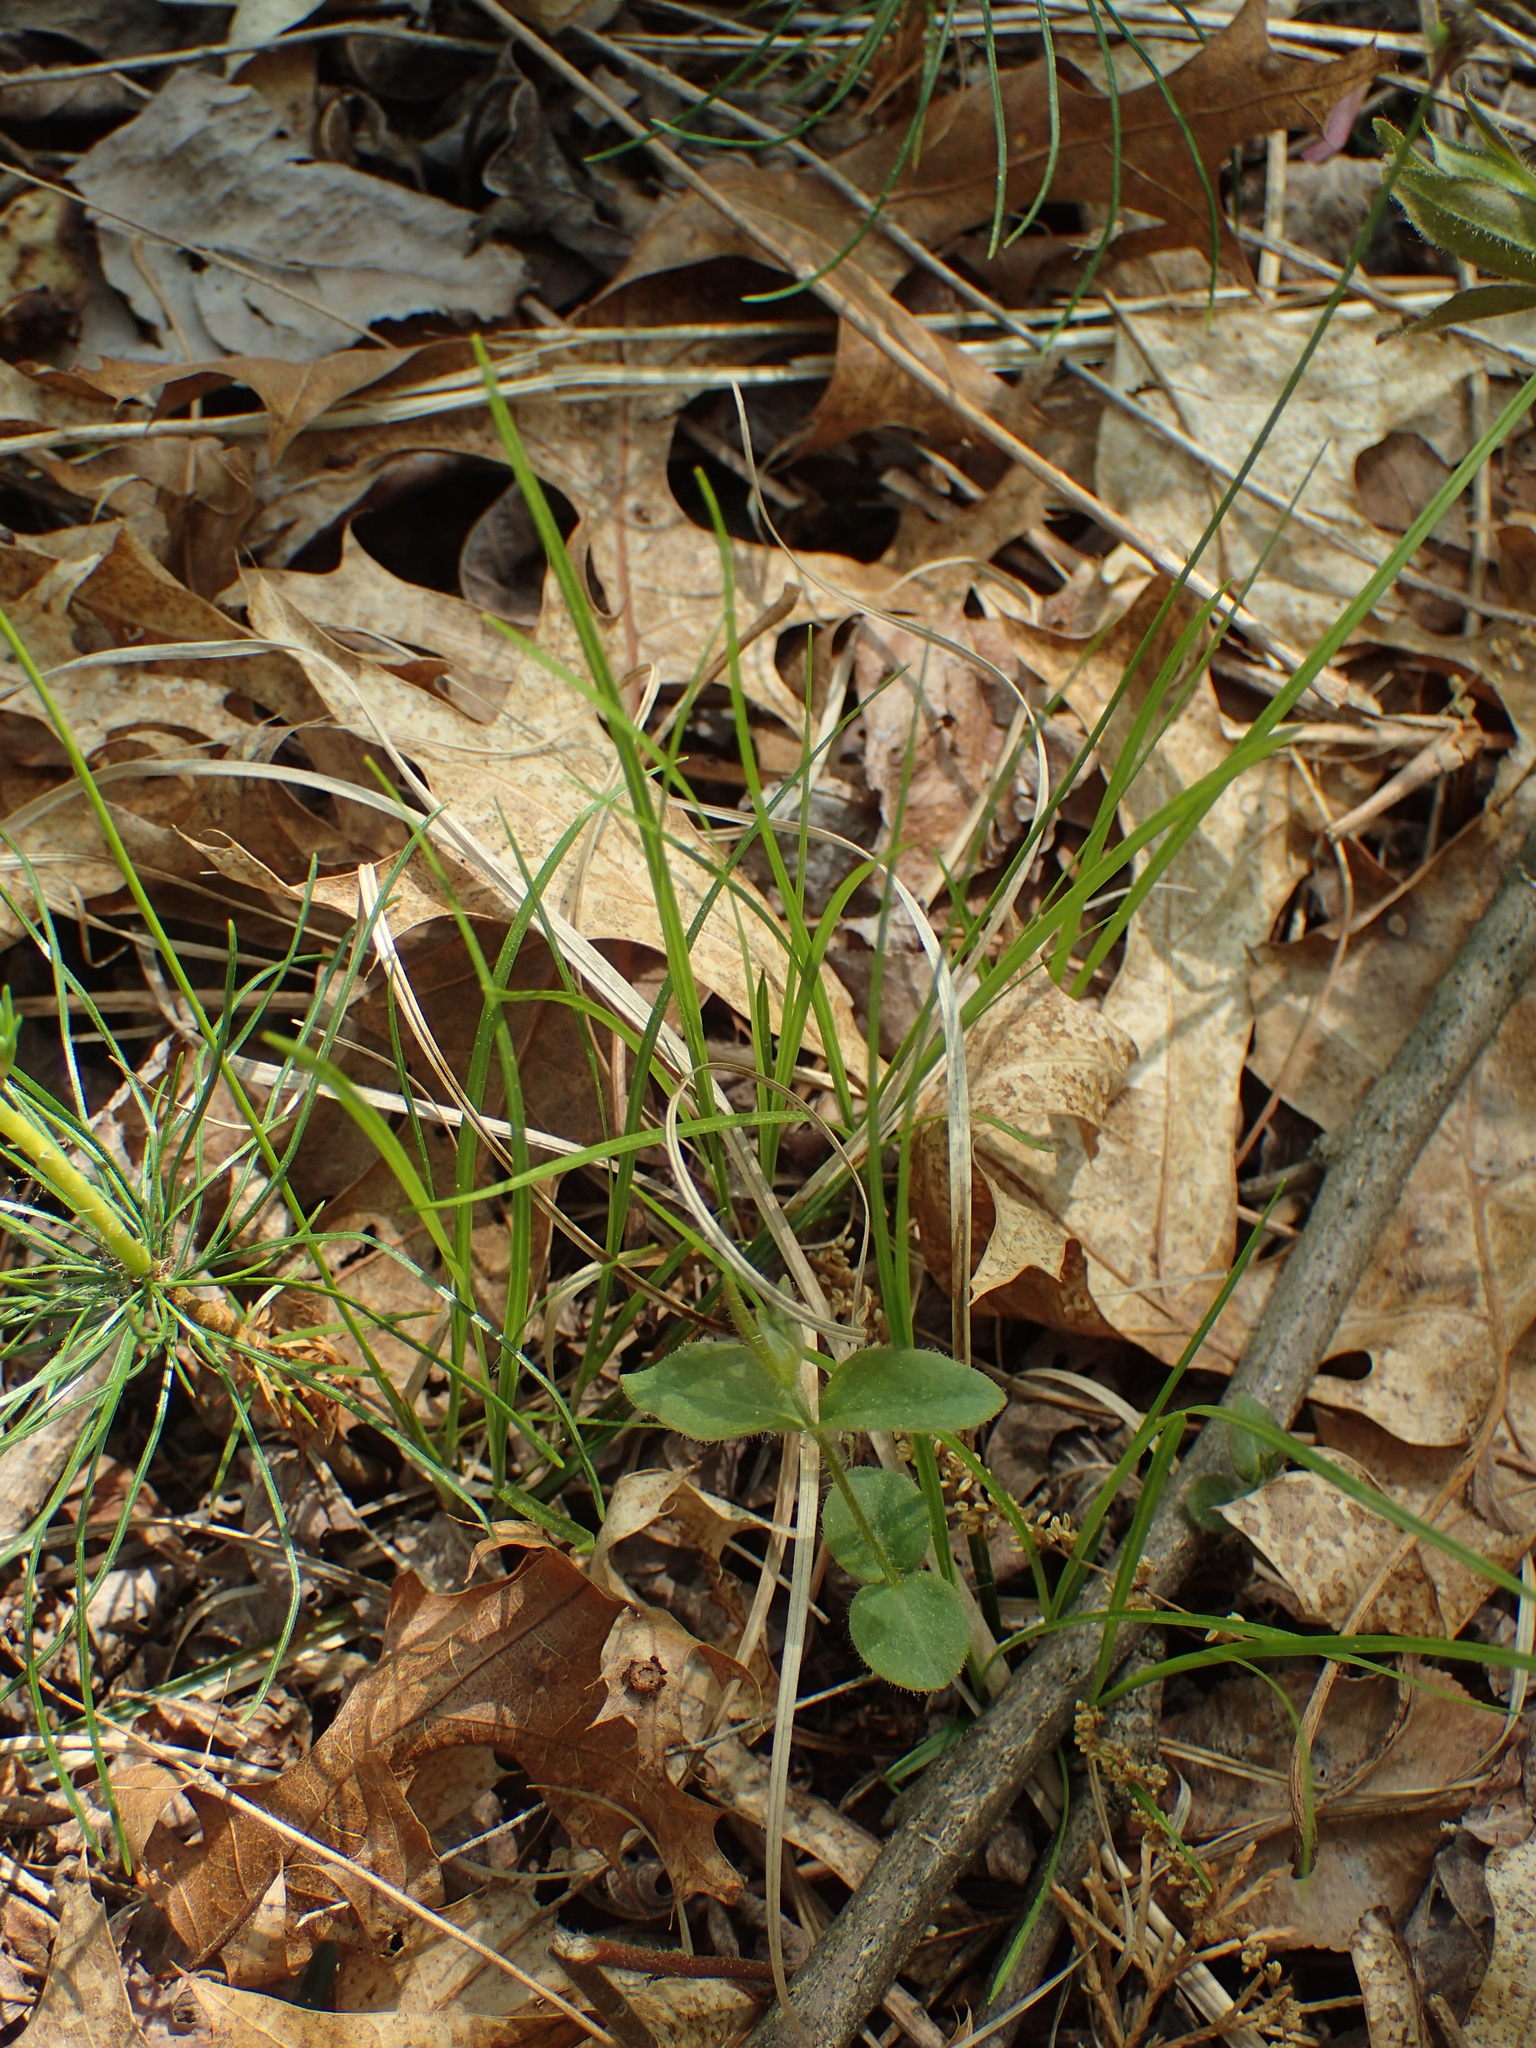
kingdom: Plantae
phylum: Tracheophyta
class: Liliopsida
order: Poales
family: Cyperaceae
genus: Carex
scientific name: Carex lucorum
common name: Blue ridge sedge
